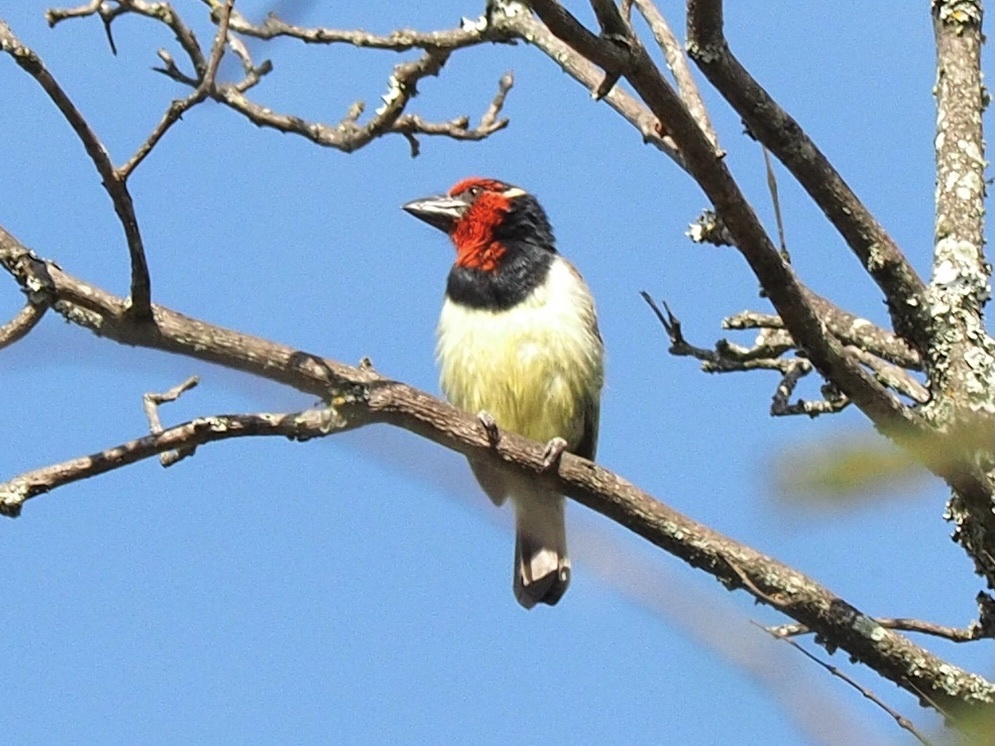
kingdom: Animalia
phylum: Chordata
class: Aves
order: Piciformes
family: Lybiidae
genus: Lybius
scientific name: Lybius torquatus
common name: Black-collared barbet
